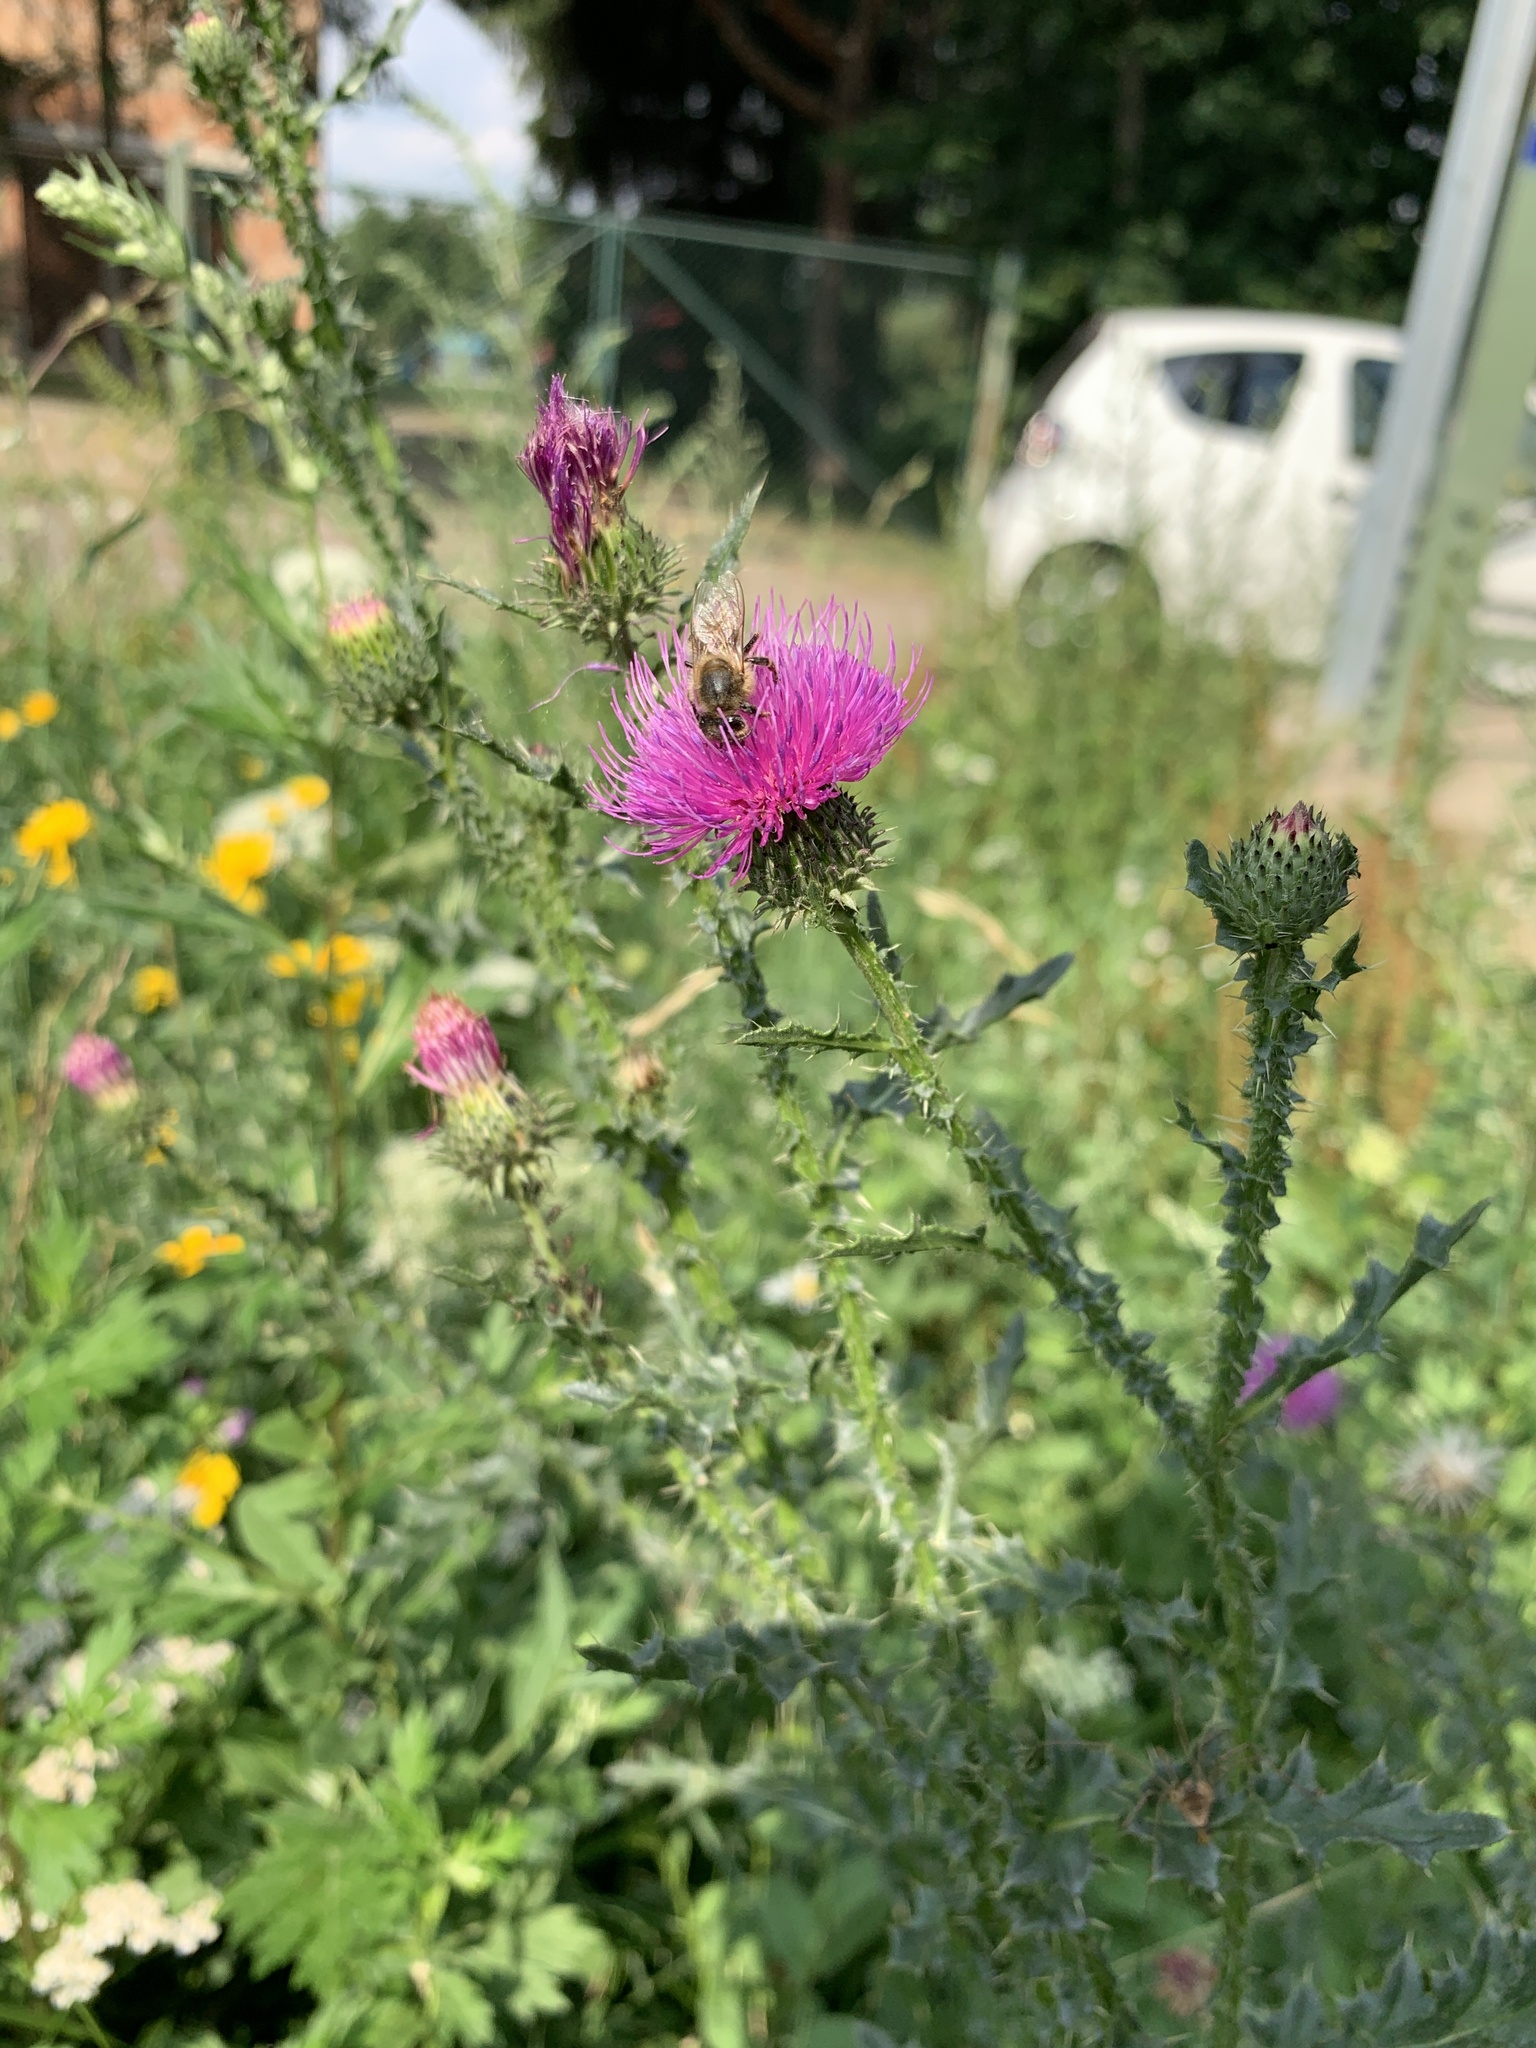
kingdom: Plantae
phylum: Tracheophyta
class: Magnoliopsida
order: Asterales
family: Asteraceae
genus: Carduus
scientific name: Carduus acanthoides
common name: Plumeless thistle
